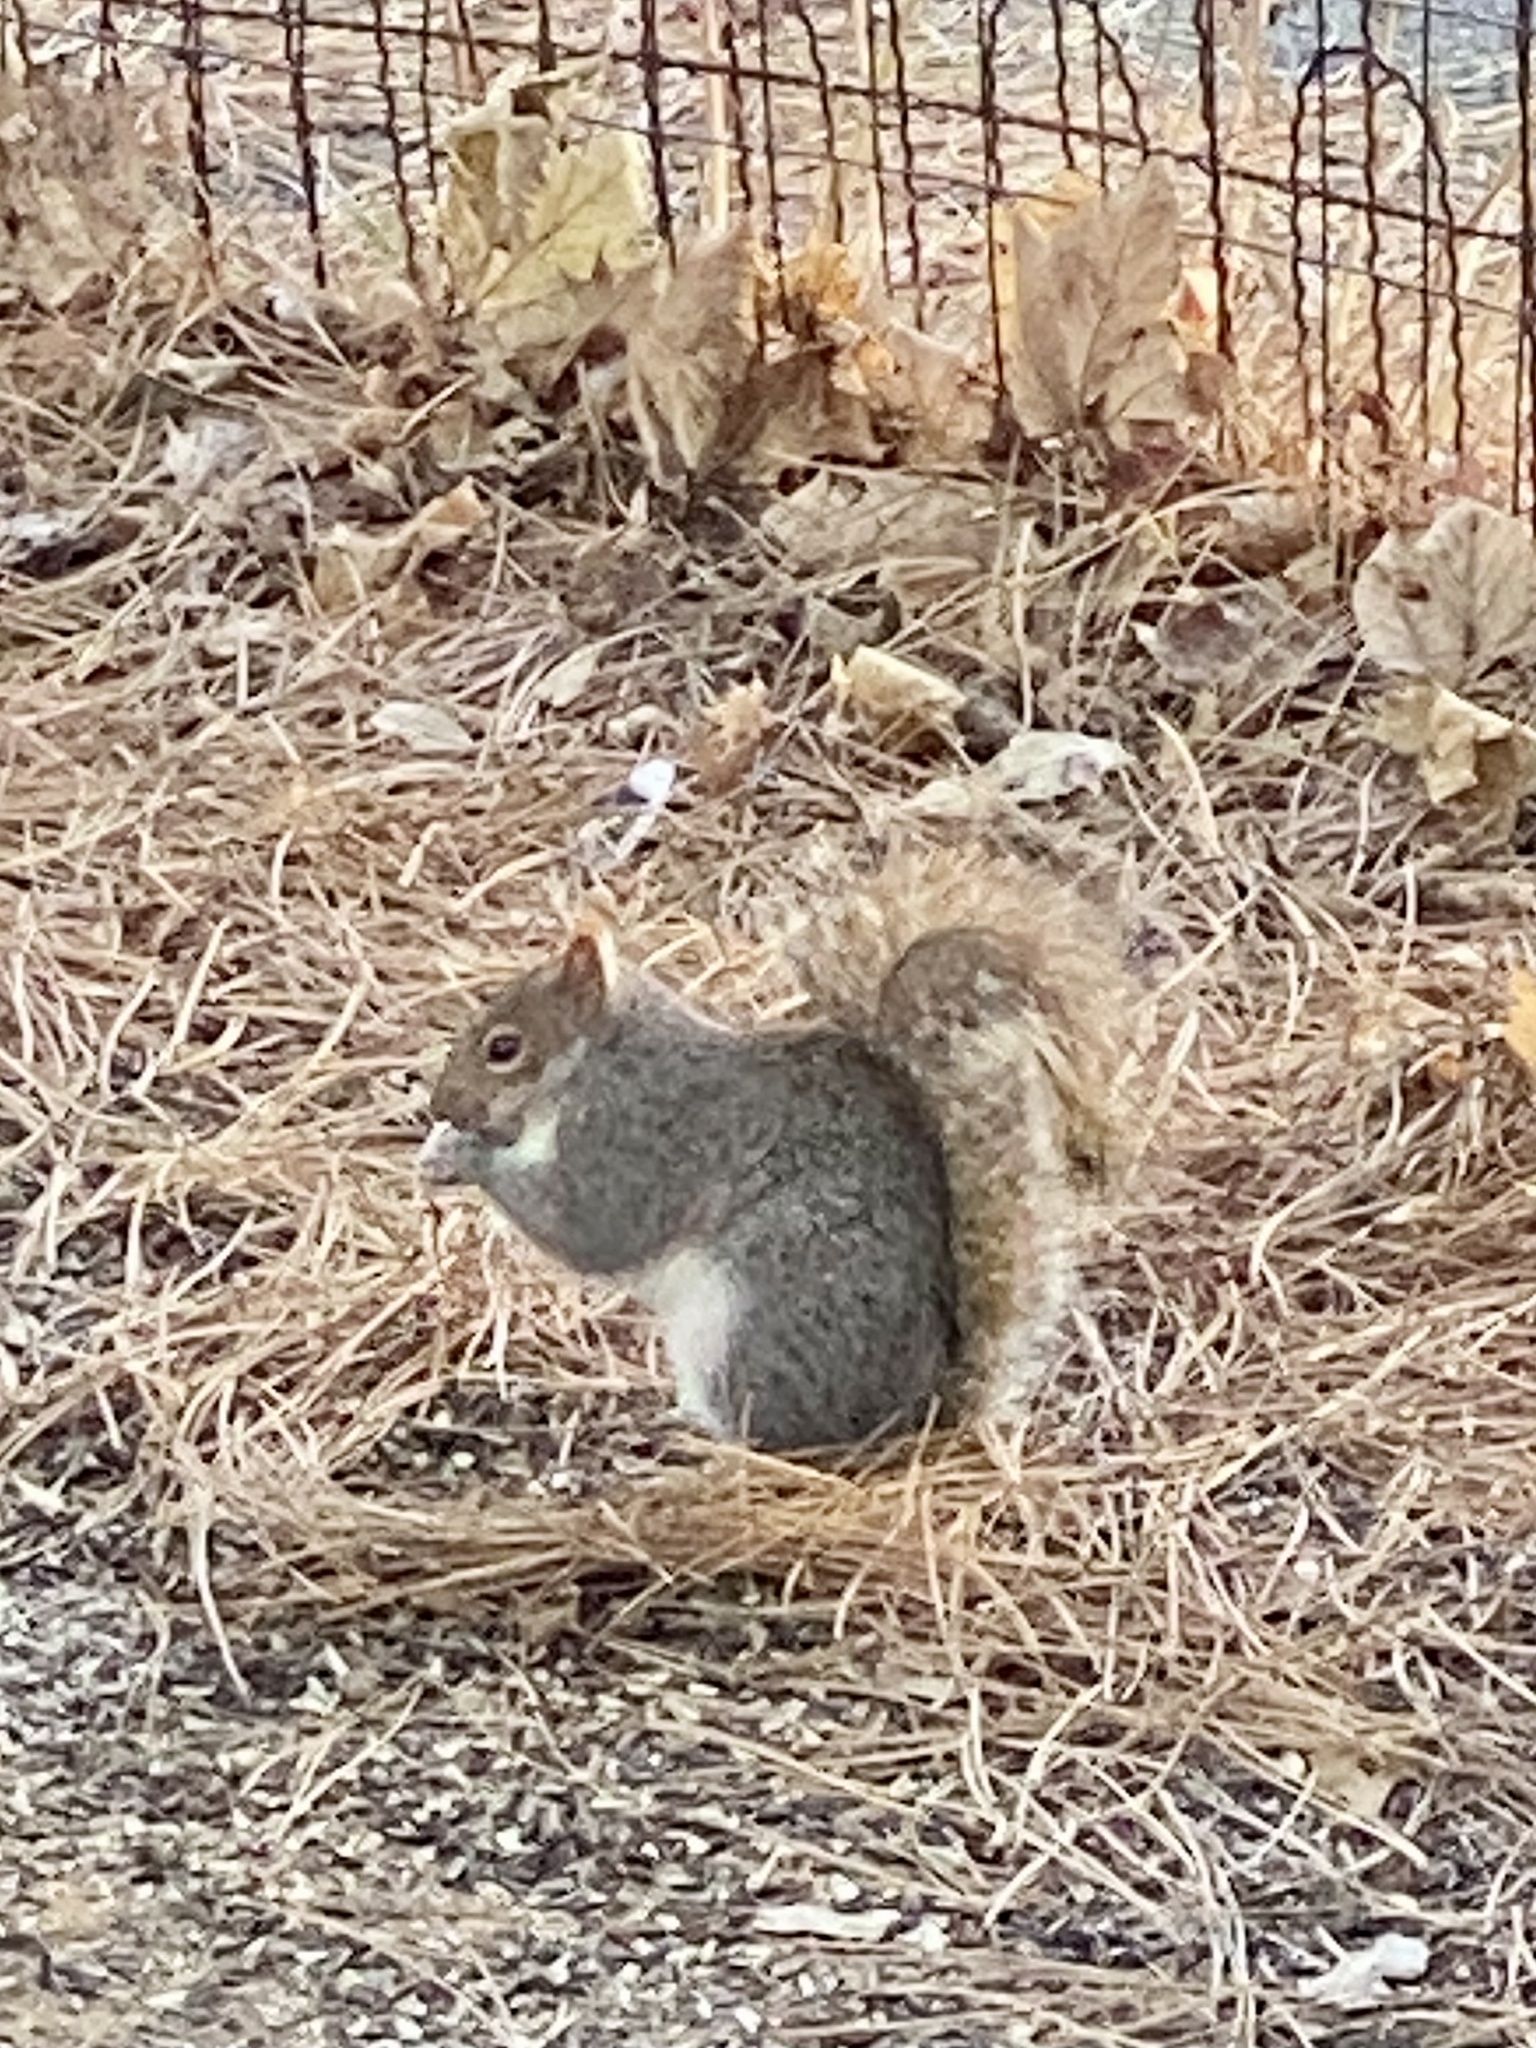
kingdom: Animalia
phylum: Chordata
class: Mammalia
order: Rodentia
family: Sciuridae
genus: Sciurus
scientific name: Sciurus carolinensis
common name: Eastern gray squirrel
